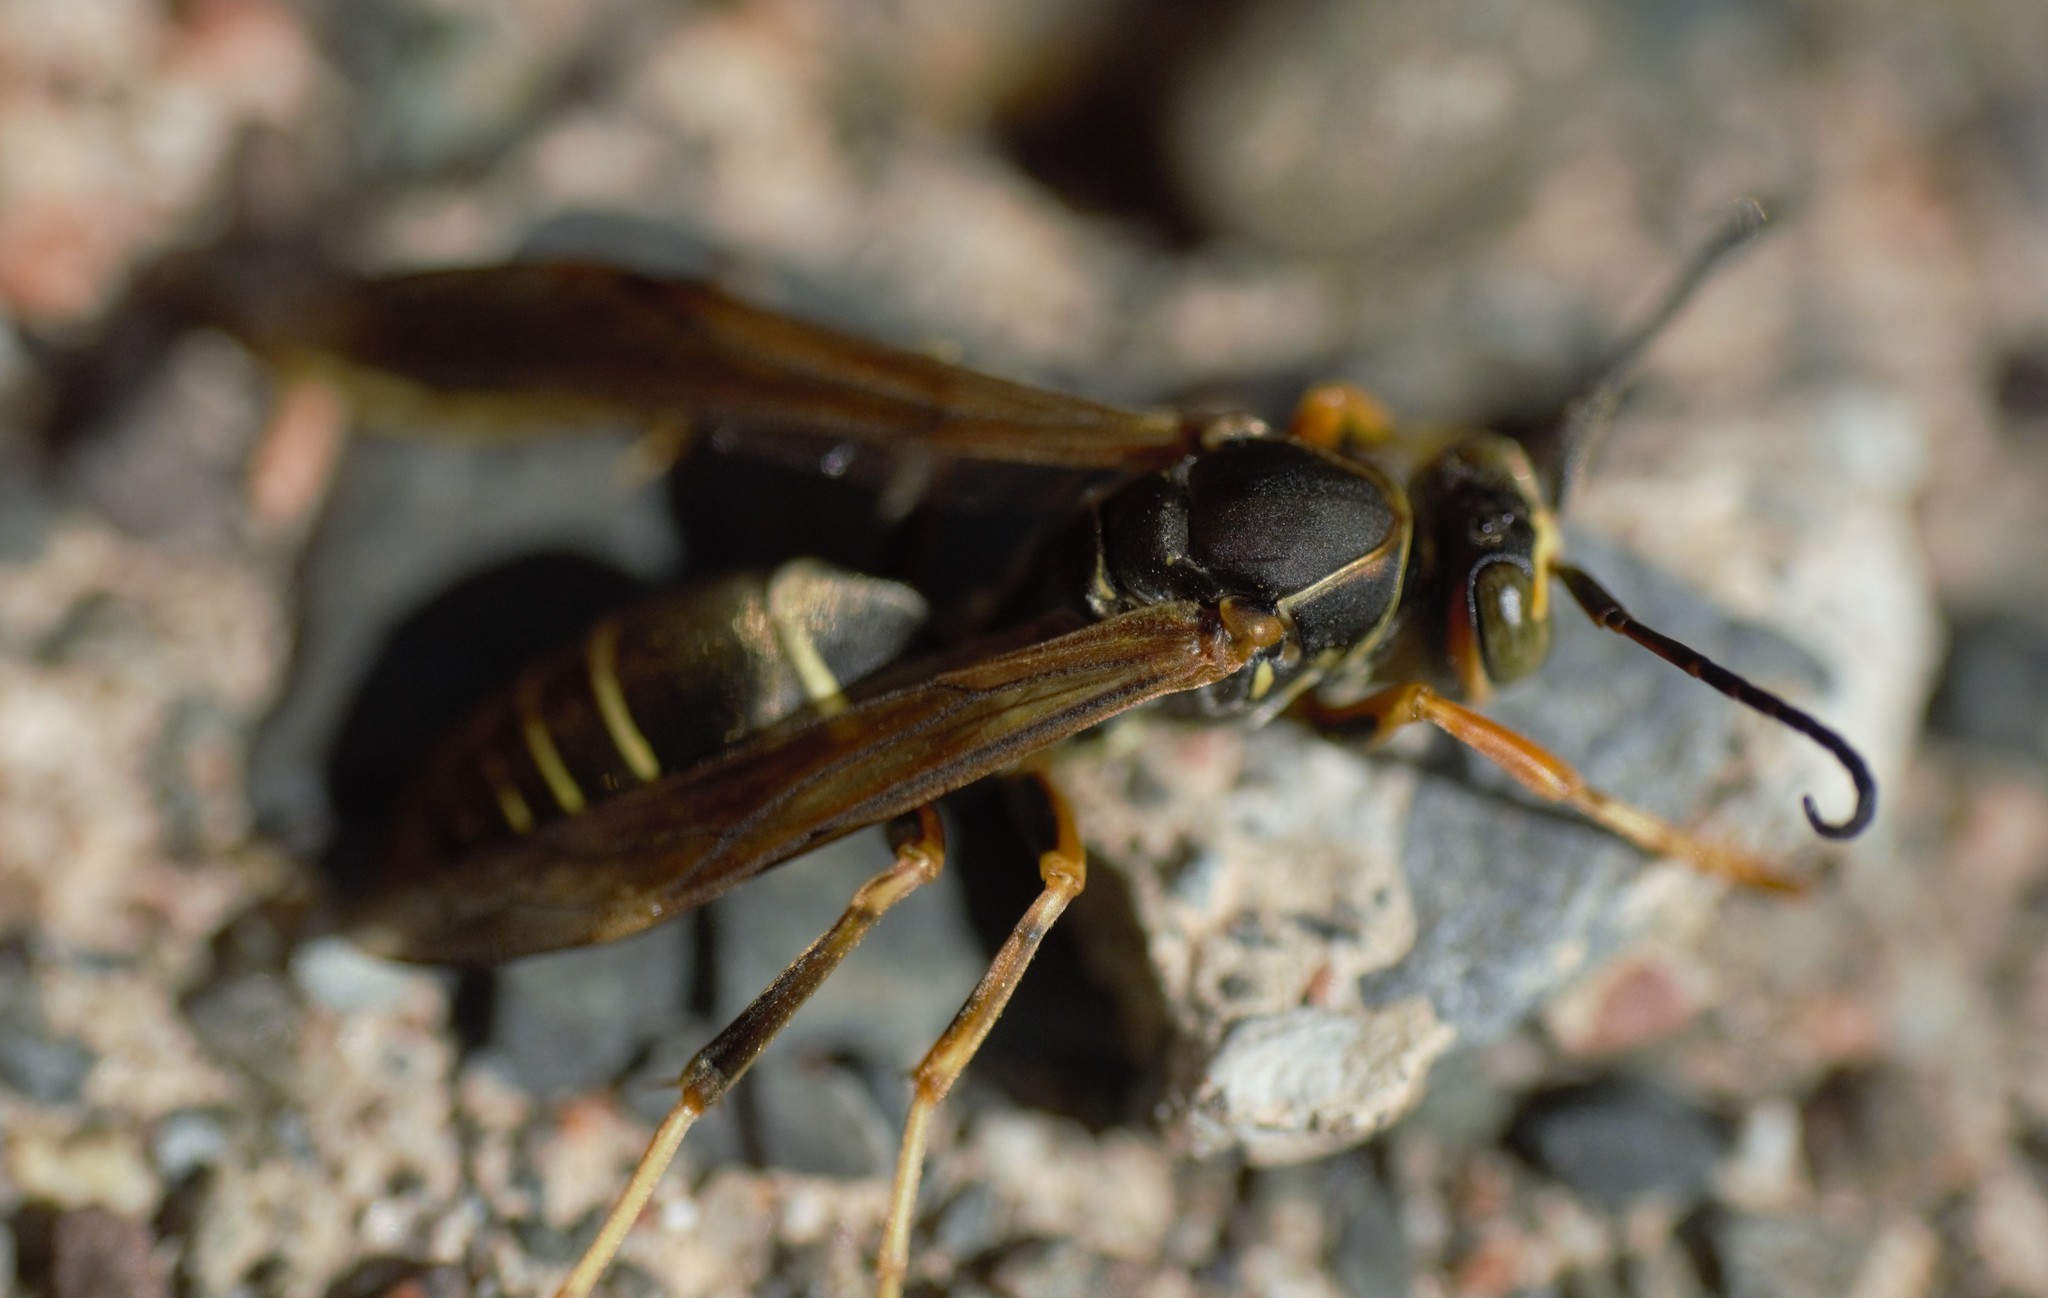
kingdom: Animalia
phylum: Arthropoda
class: Insecta
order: Hymenoptera
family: Eumenidae
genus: Polistes
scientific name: Polistes fuscatus
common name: Dark paper wasp
